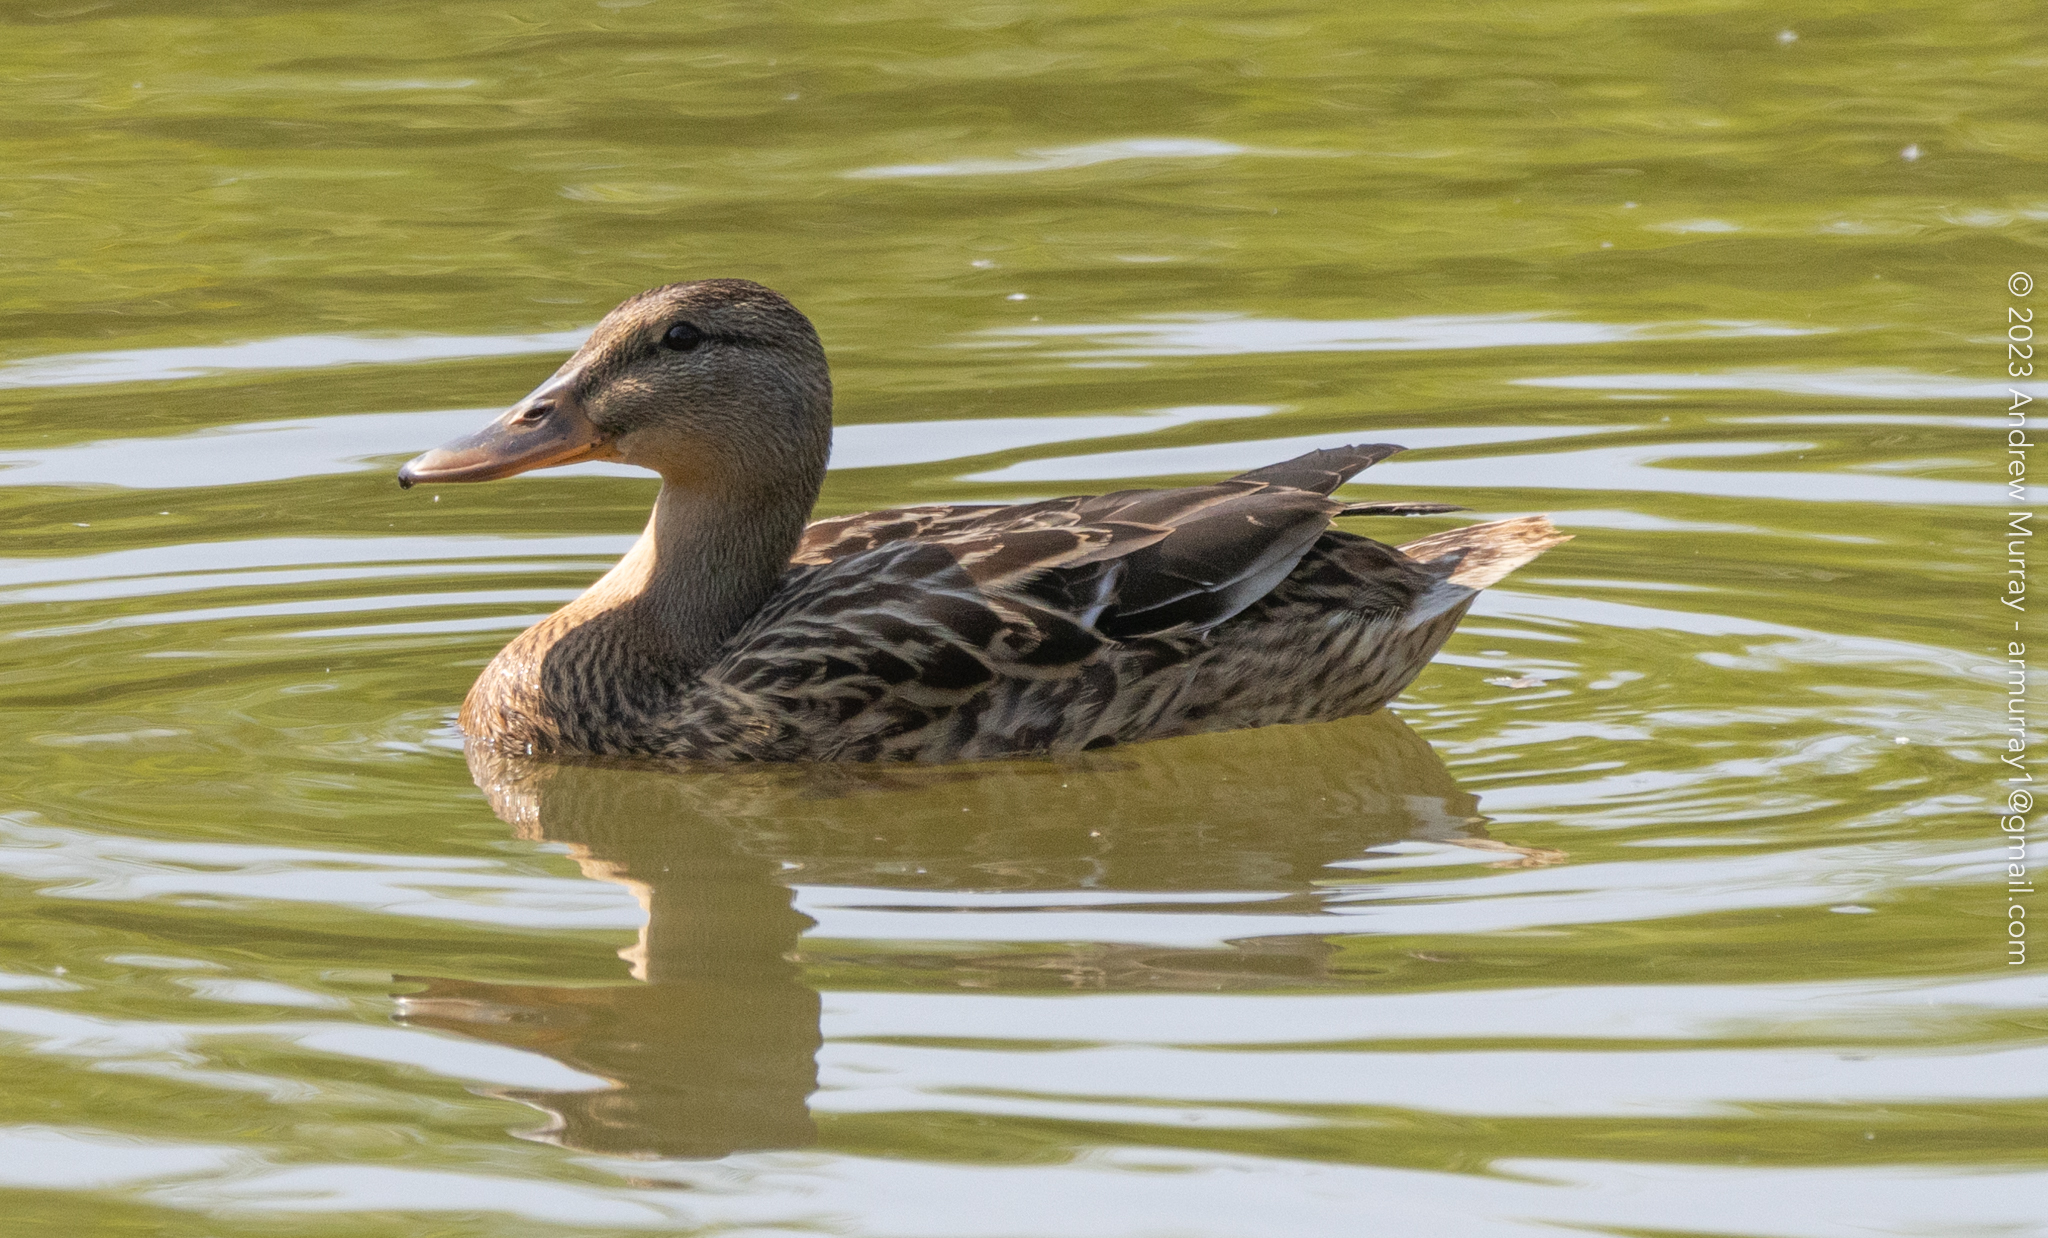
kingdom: Animalia
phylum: Chordata
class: Aves
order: Anseriformes
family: Anatidae
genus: Anas
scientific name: Anas platyrhynchos
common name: Mallard
